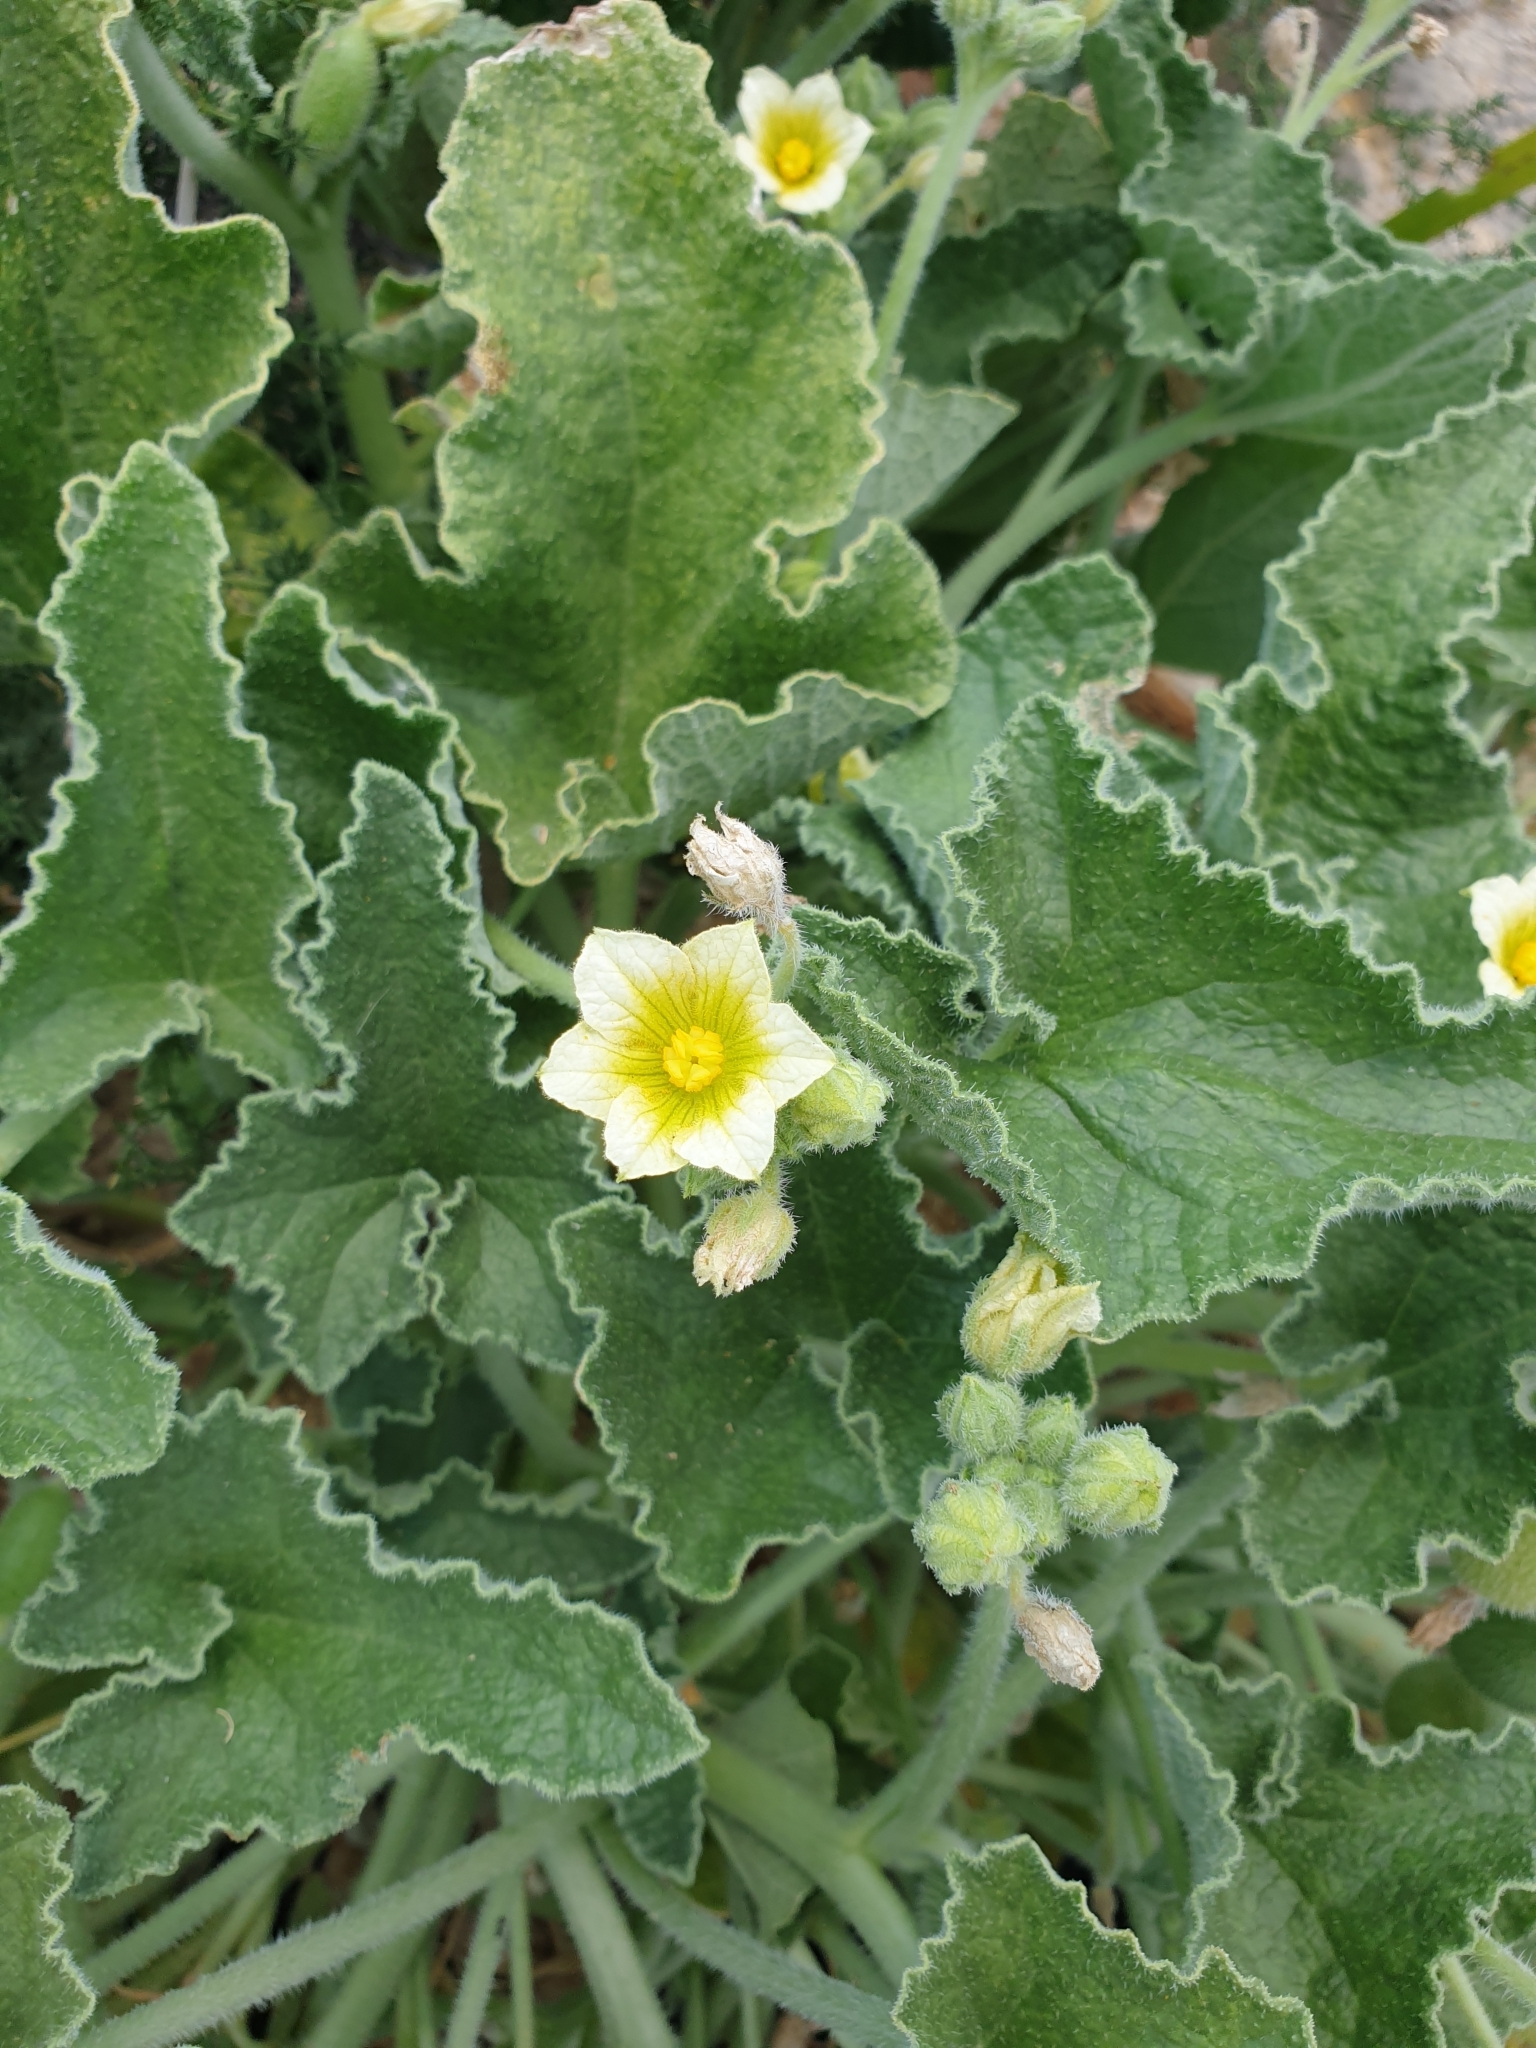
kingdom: Plantae
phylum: Tracheophyta
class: Magnoliopsida
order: Cucurbitales
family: Cucurbitaceae
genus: Ecballium
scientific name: Ecballium elaterium
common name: Squirting cucumber
